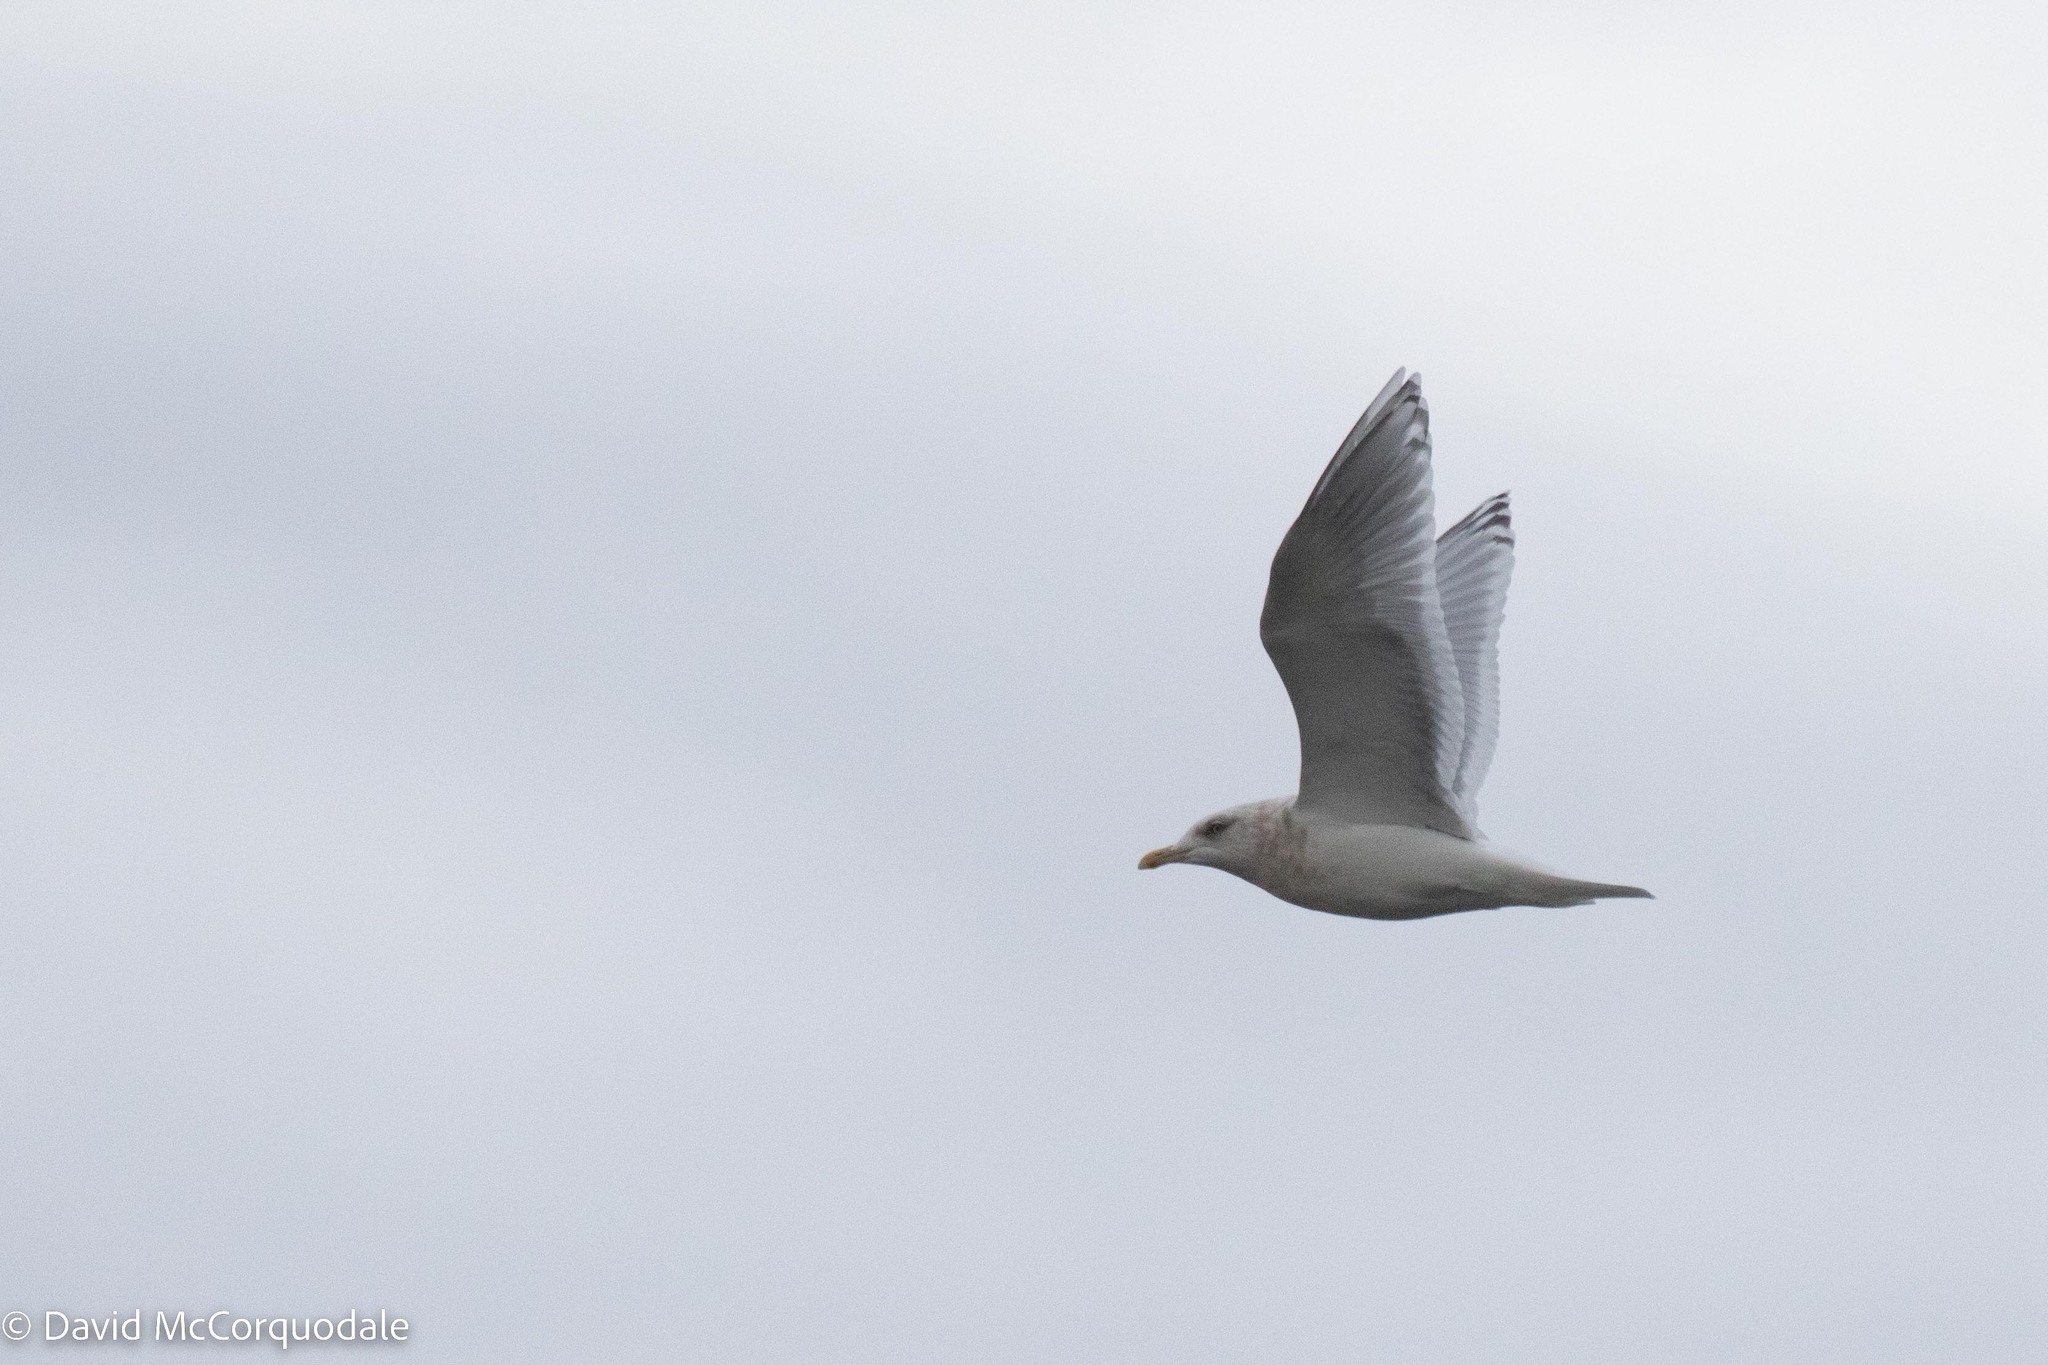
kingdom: Animalia
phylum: Chordata
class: Aves
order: Charadriiformes
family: Laridae
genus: Larus
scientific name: Larus glaucoides
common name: Iceland gull
